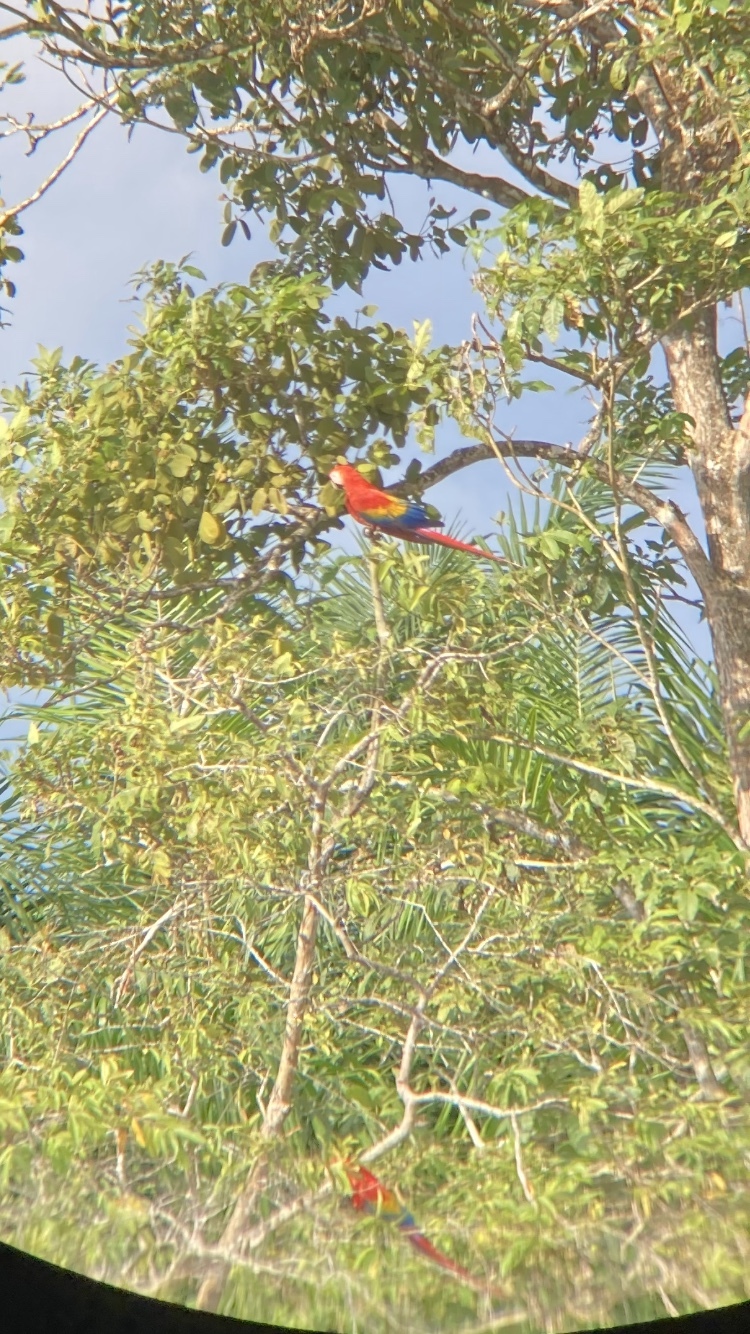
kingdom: Animalia
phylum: Chordata
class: Aves
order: Psittaciformes
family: Psittacidae
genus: Ara
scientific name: Ara macao
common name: Scarlet macaw
